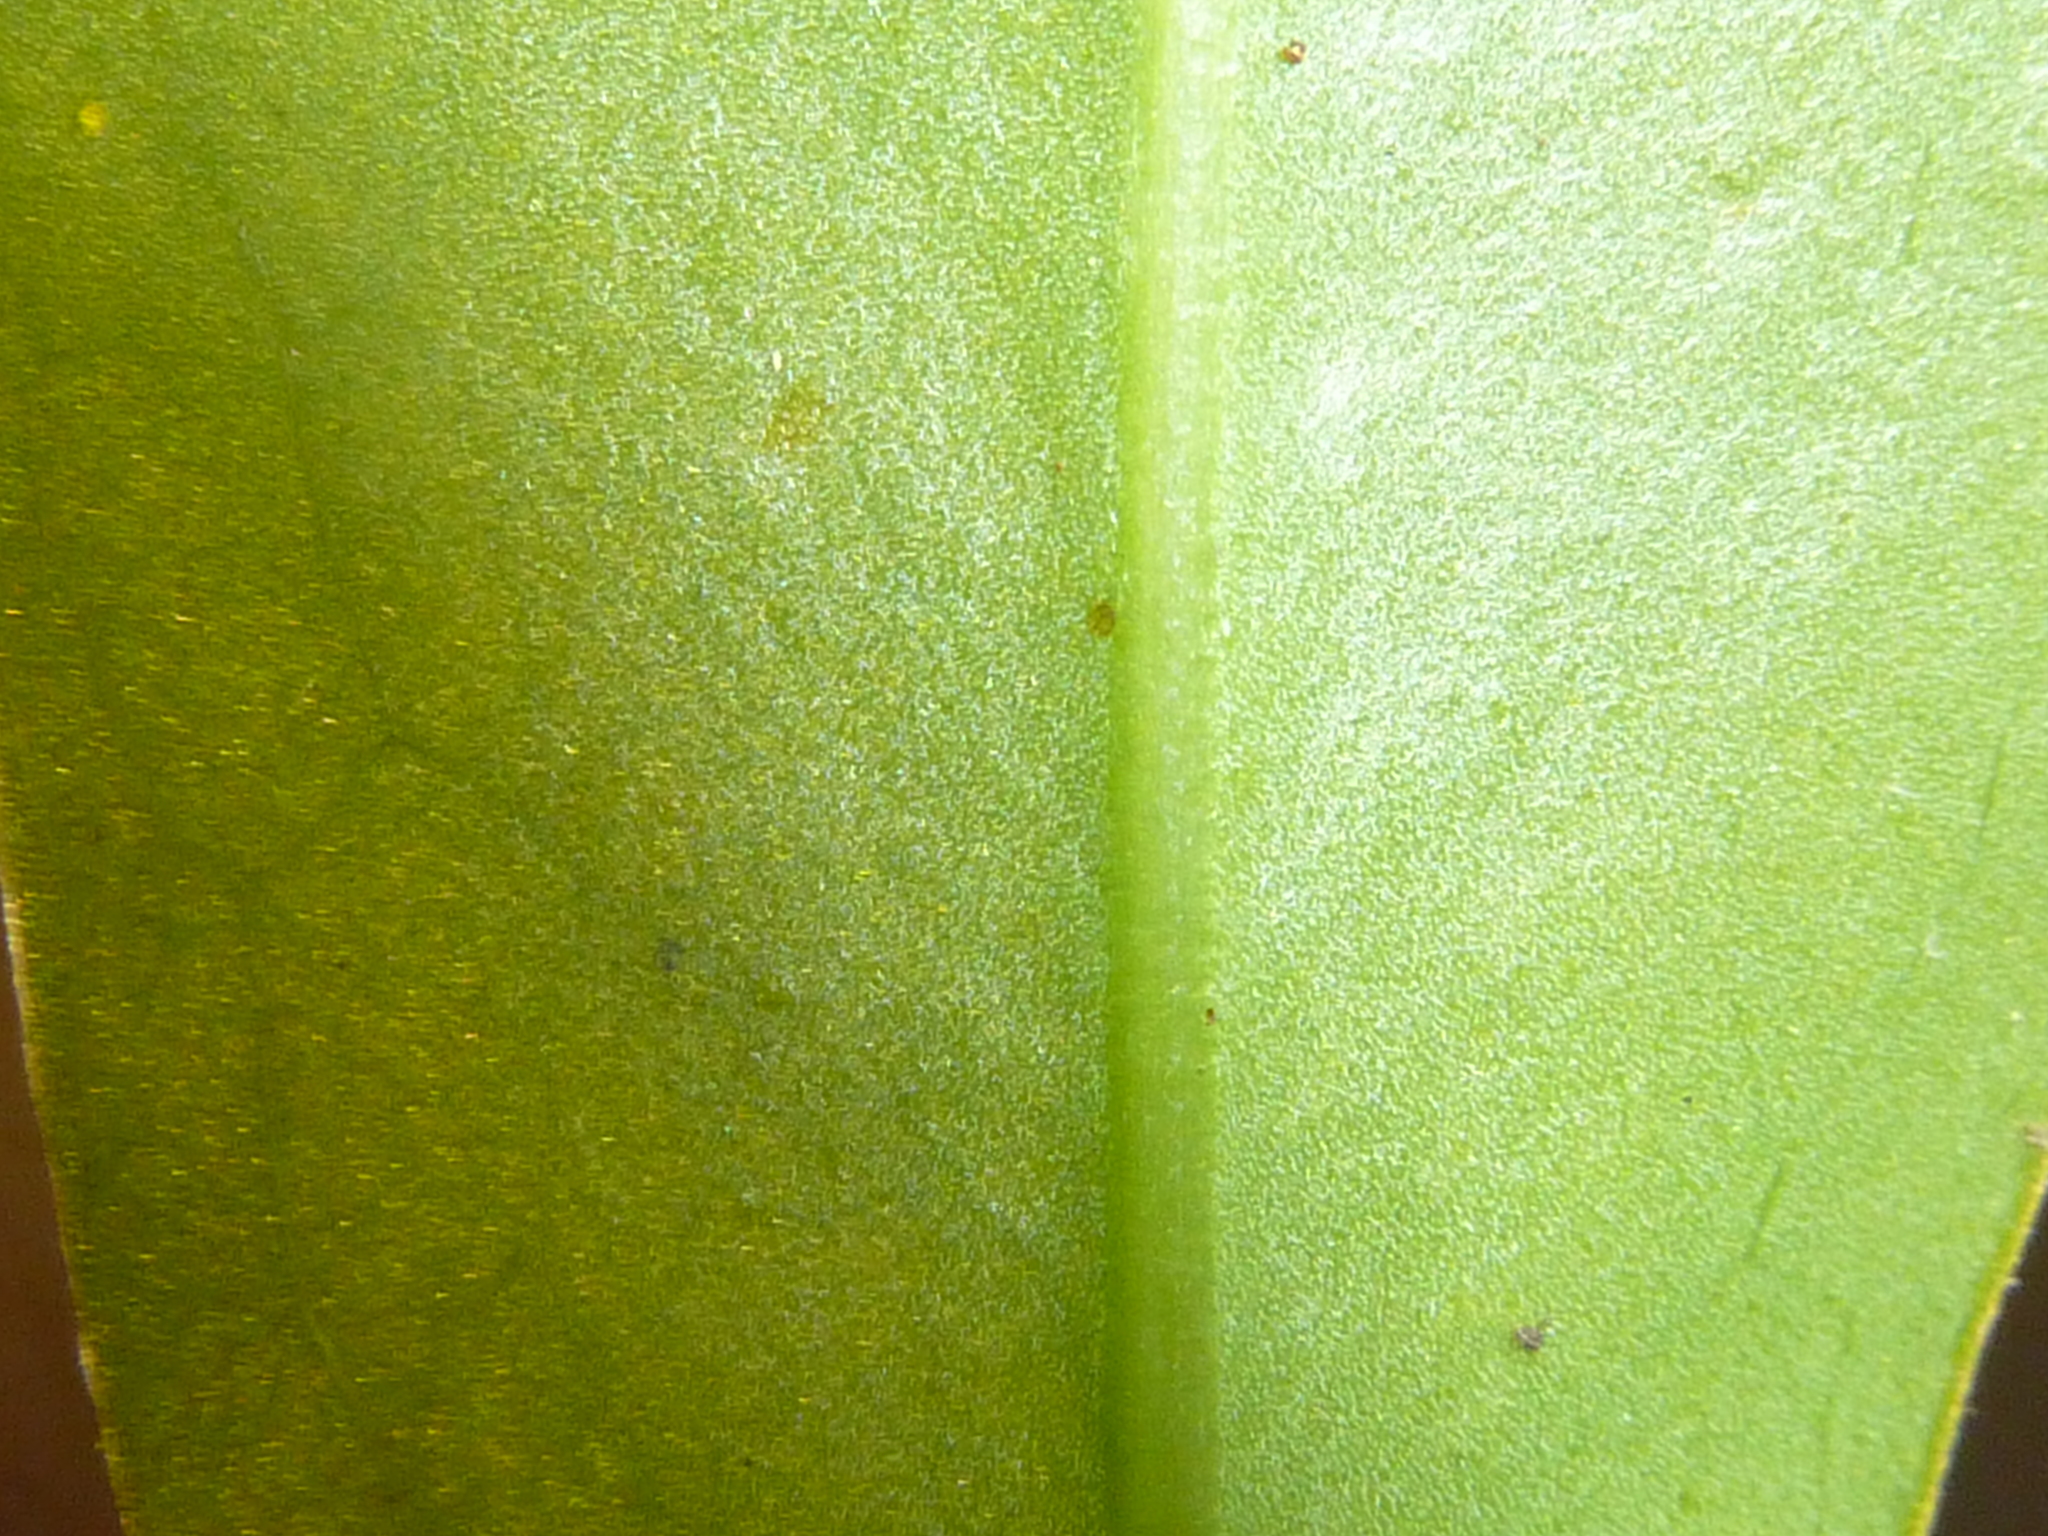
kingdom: Plantae
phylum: Tracheophyta
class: Magnoliopsida
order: Canellales
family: Winteraceae
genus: Drimys
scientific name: Drimys insipida
